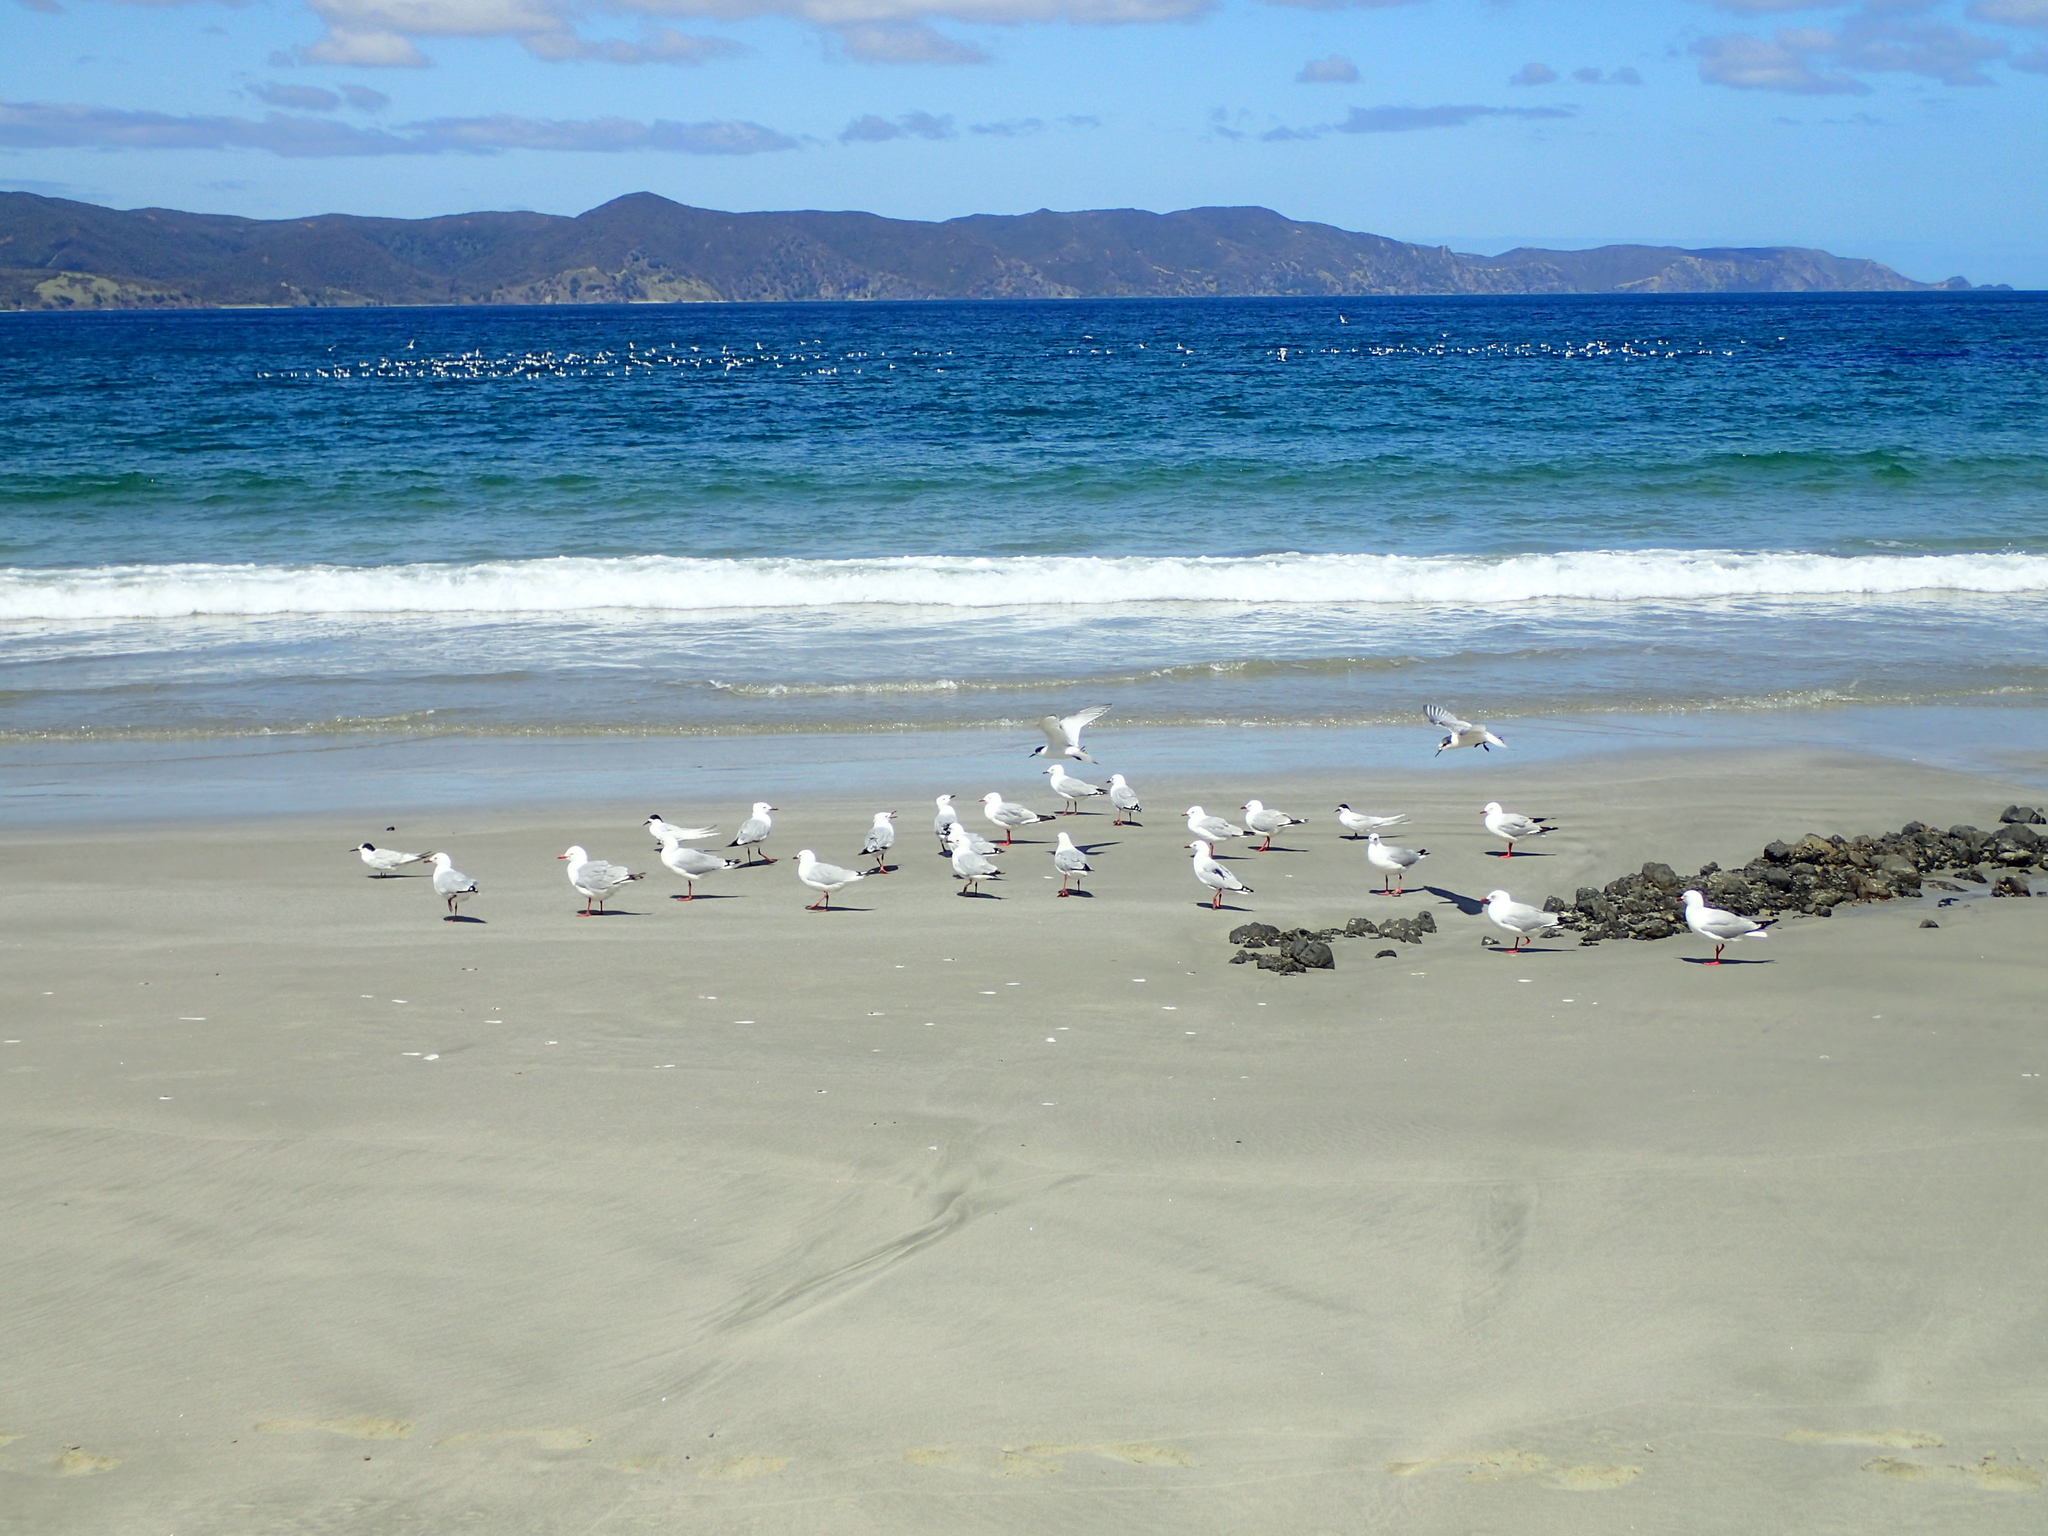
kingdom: Animalia
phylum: Chordata
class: Aves
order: Charadriiformes
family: Laridae
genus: Chroicocephalus
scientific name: Chroicocephalus novaehollandiae
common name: Silver gull
